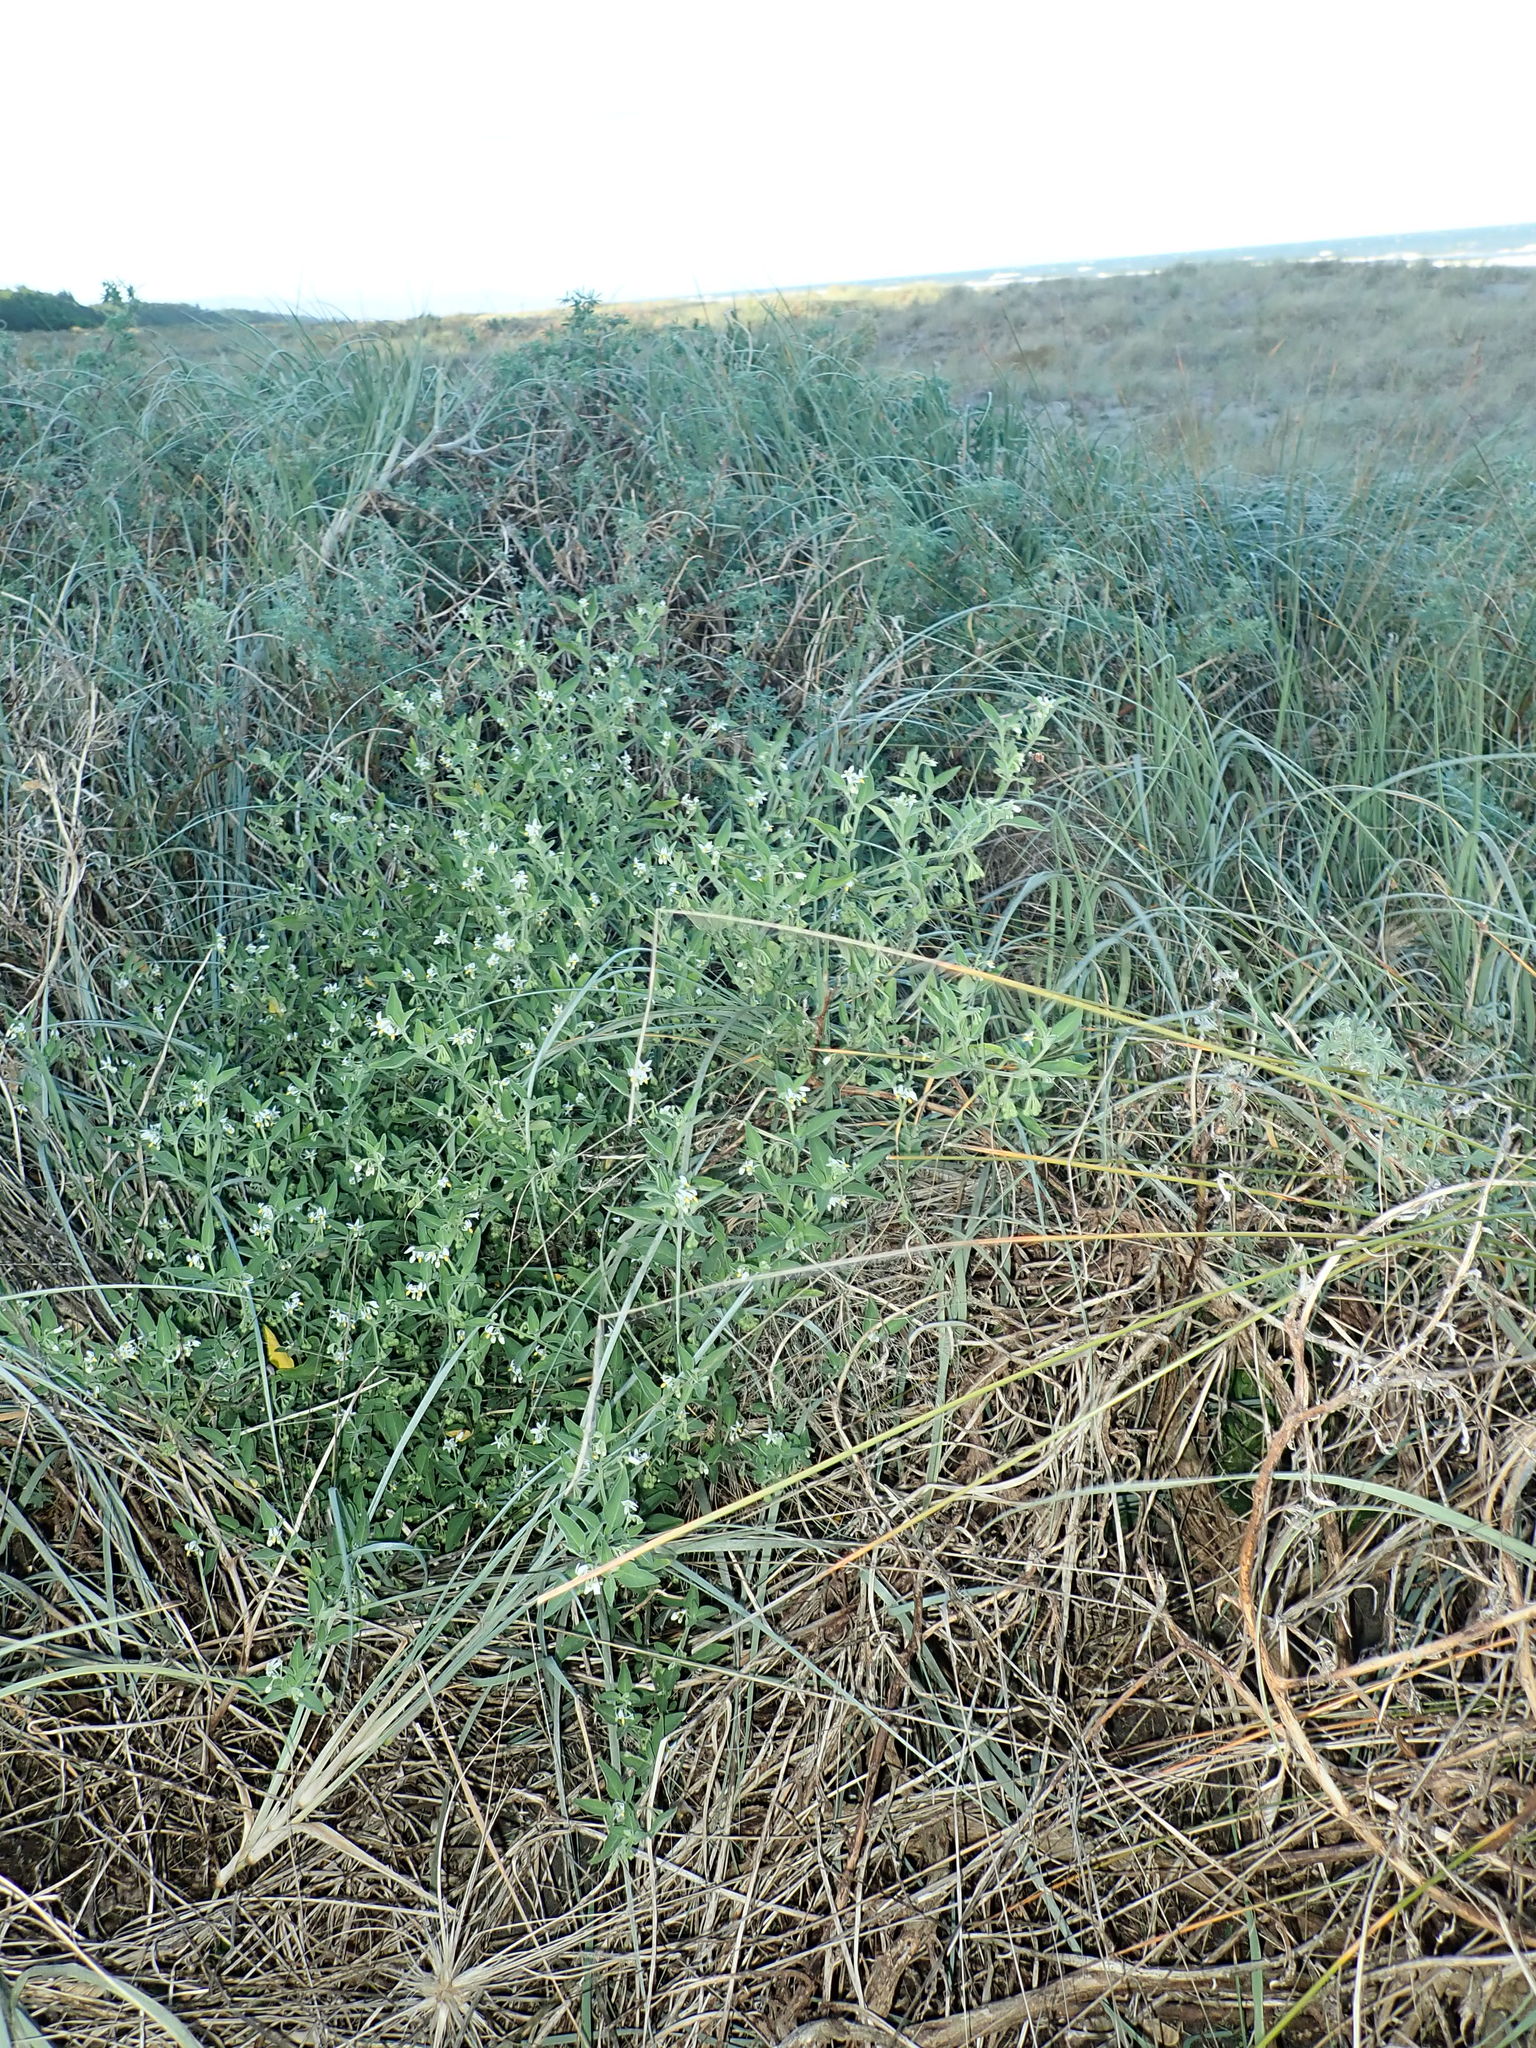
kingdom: Plantae
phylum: Tracheophyta
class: Magnoliopsida
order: Solanales
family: Solanaceae
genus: Solanum
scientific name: Solanum chenopodioides
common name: Tall nightshade
